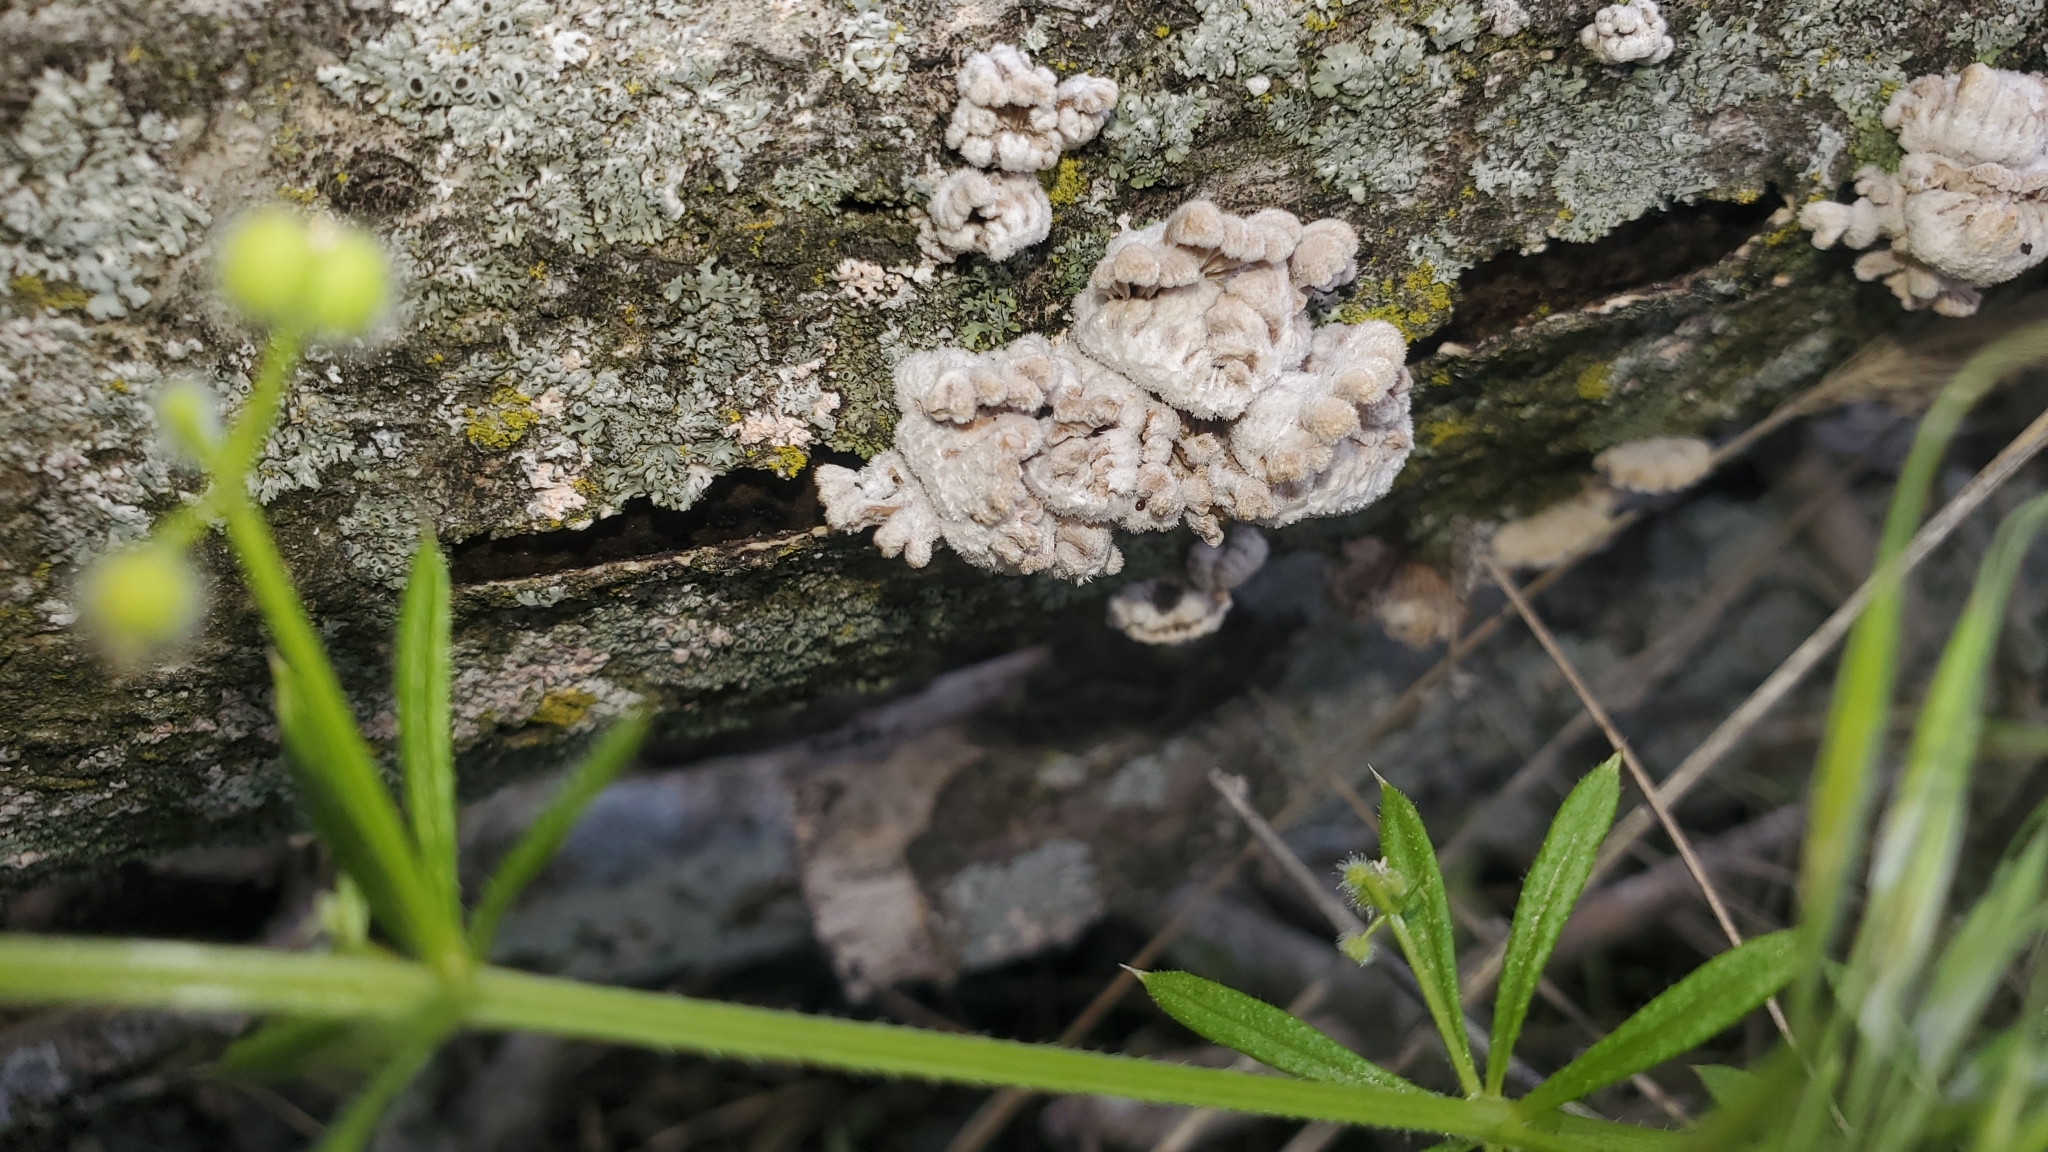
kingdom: Fungi
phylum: Basidiomycota
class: Agaricomycetes
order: Agaricales
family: Schizophyllaceae
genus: Schizophyllum
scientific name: Schizophyllum commune
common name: Common porecrust
